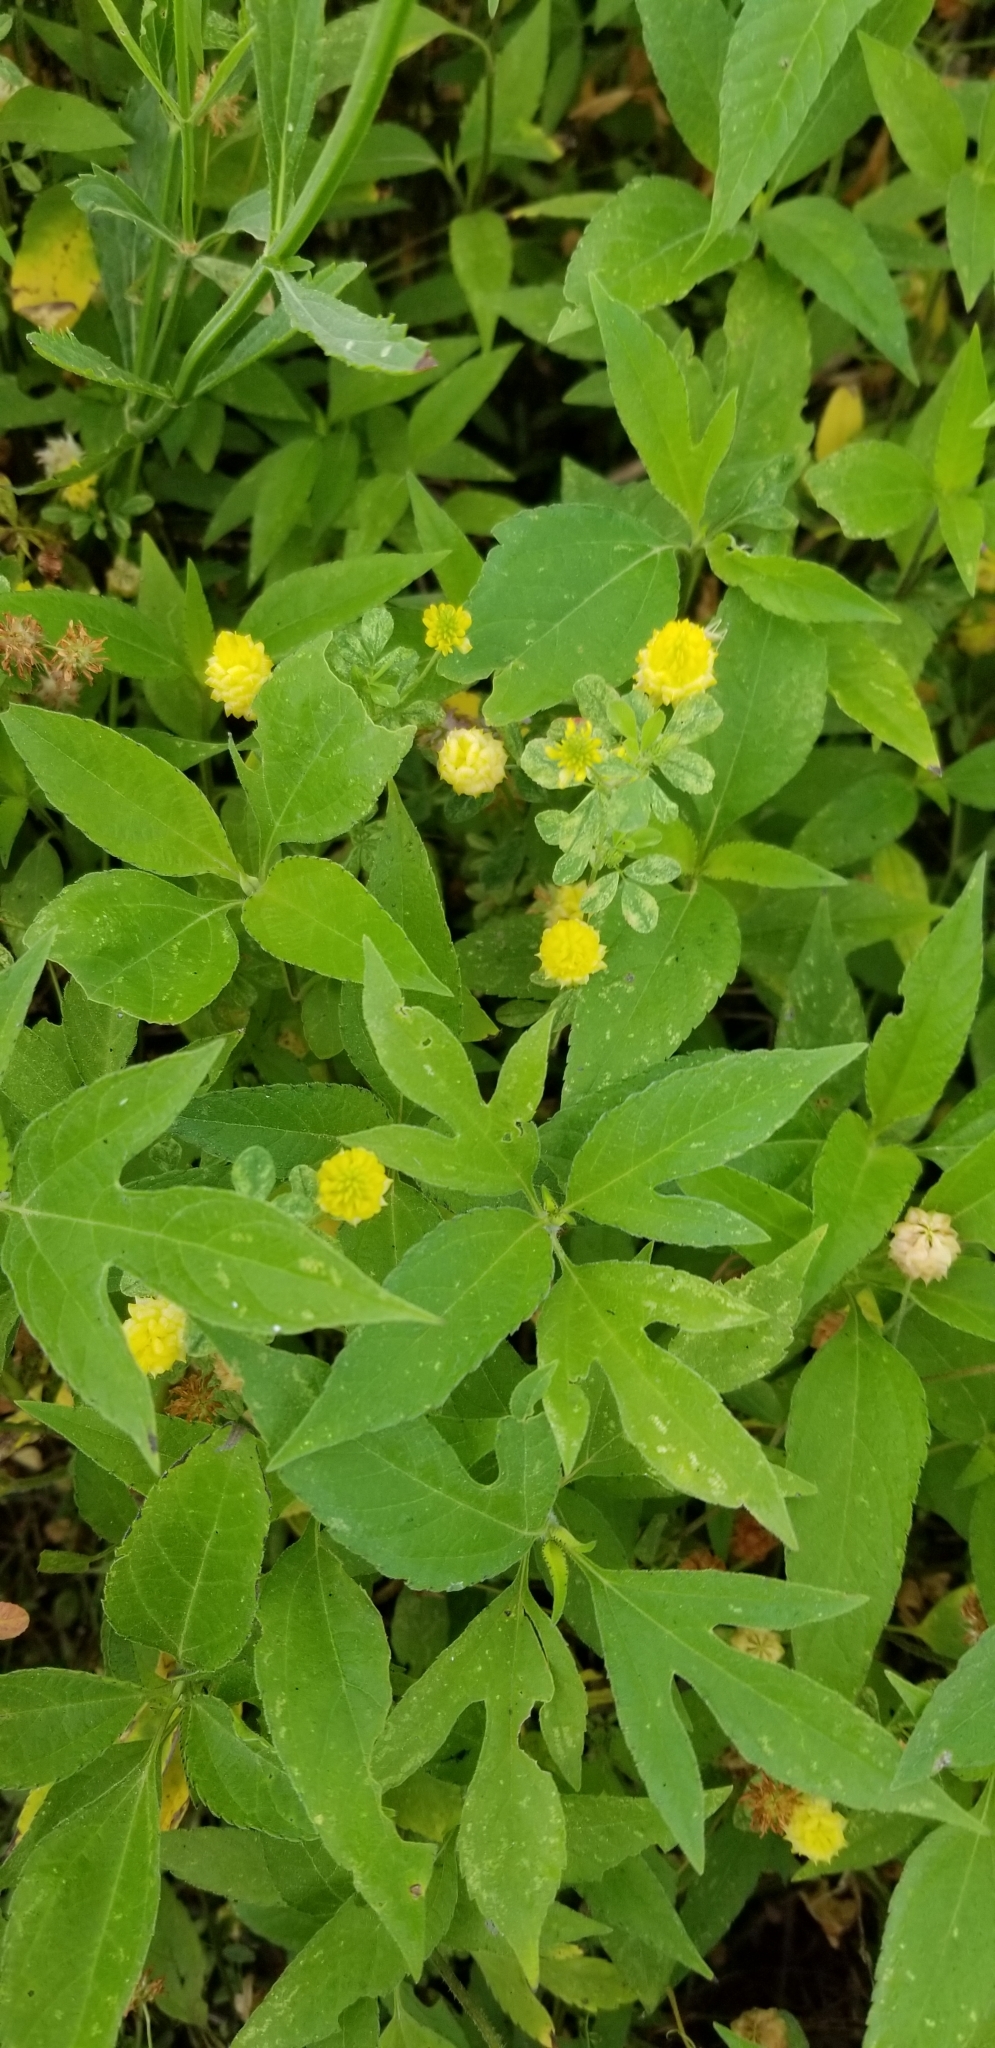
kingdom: Plantae
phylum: Tracheophyta
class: Magnoliopsida
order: Fabales
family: Fabaceae
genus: Trifolium
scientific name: Trifolium campestre
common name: Field clover
